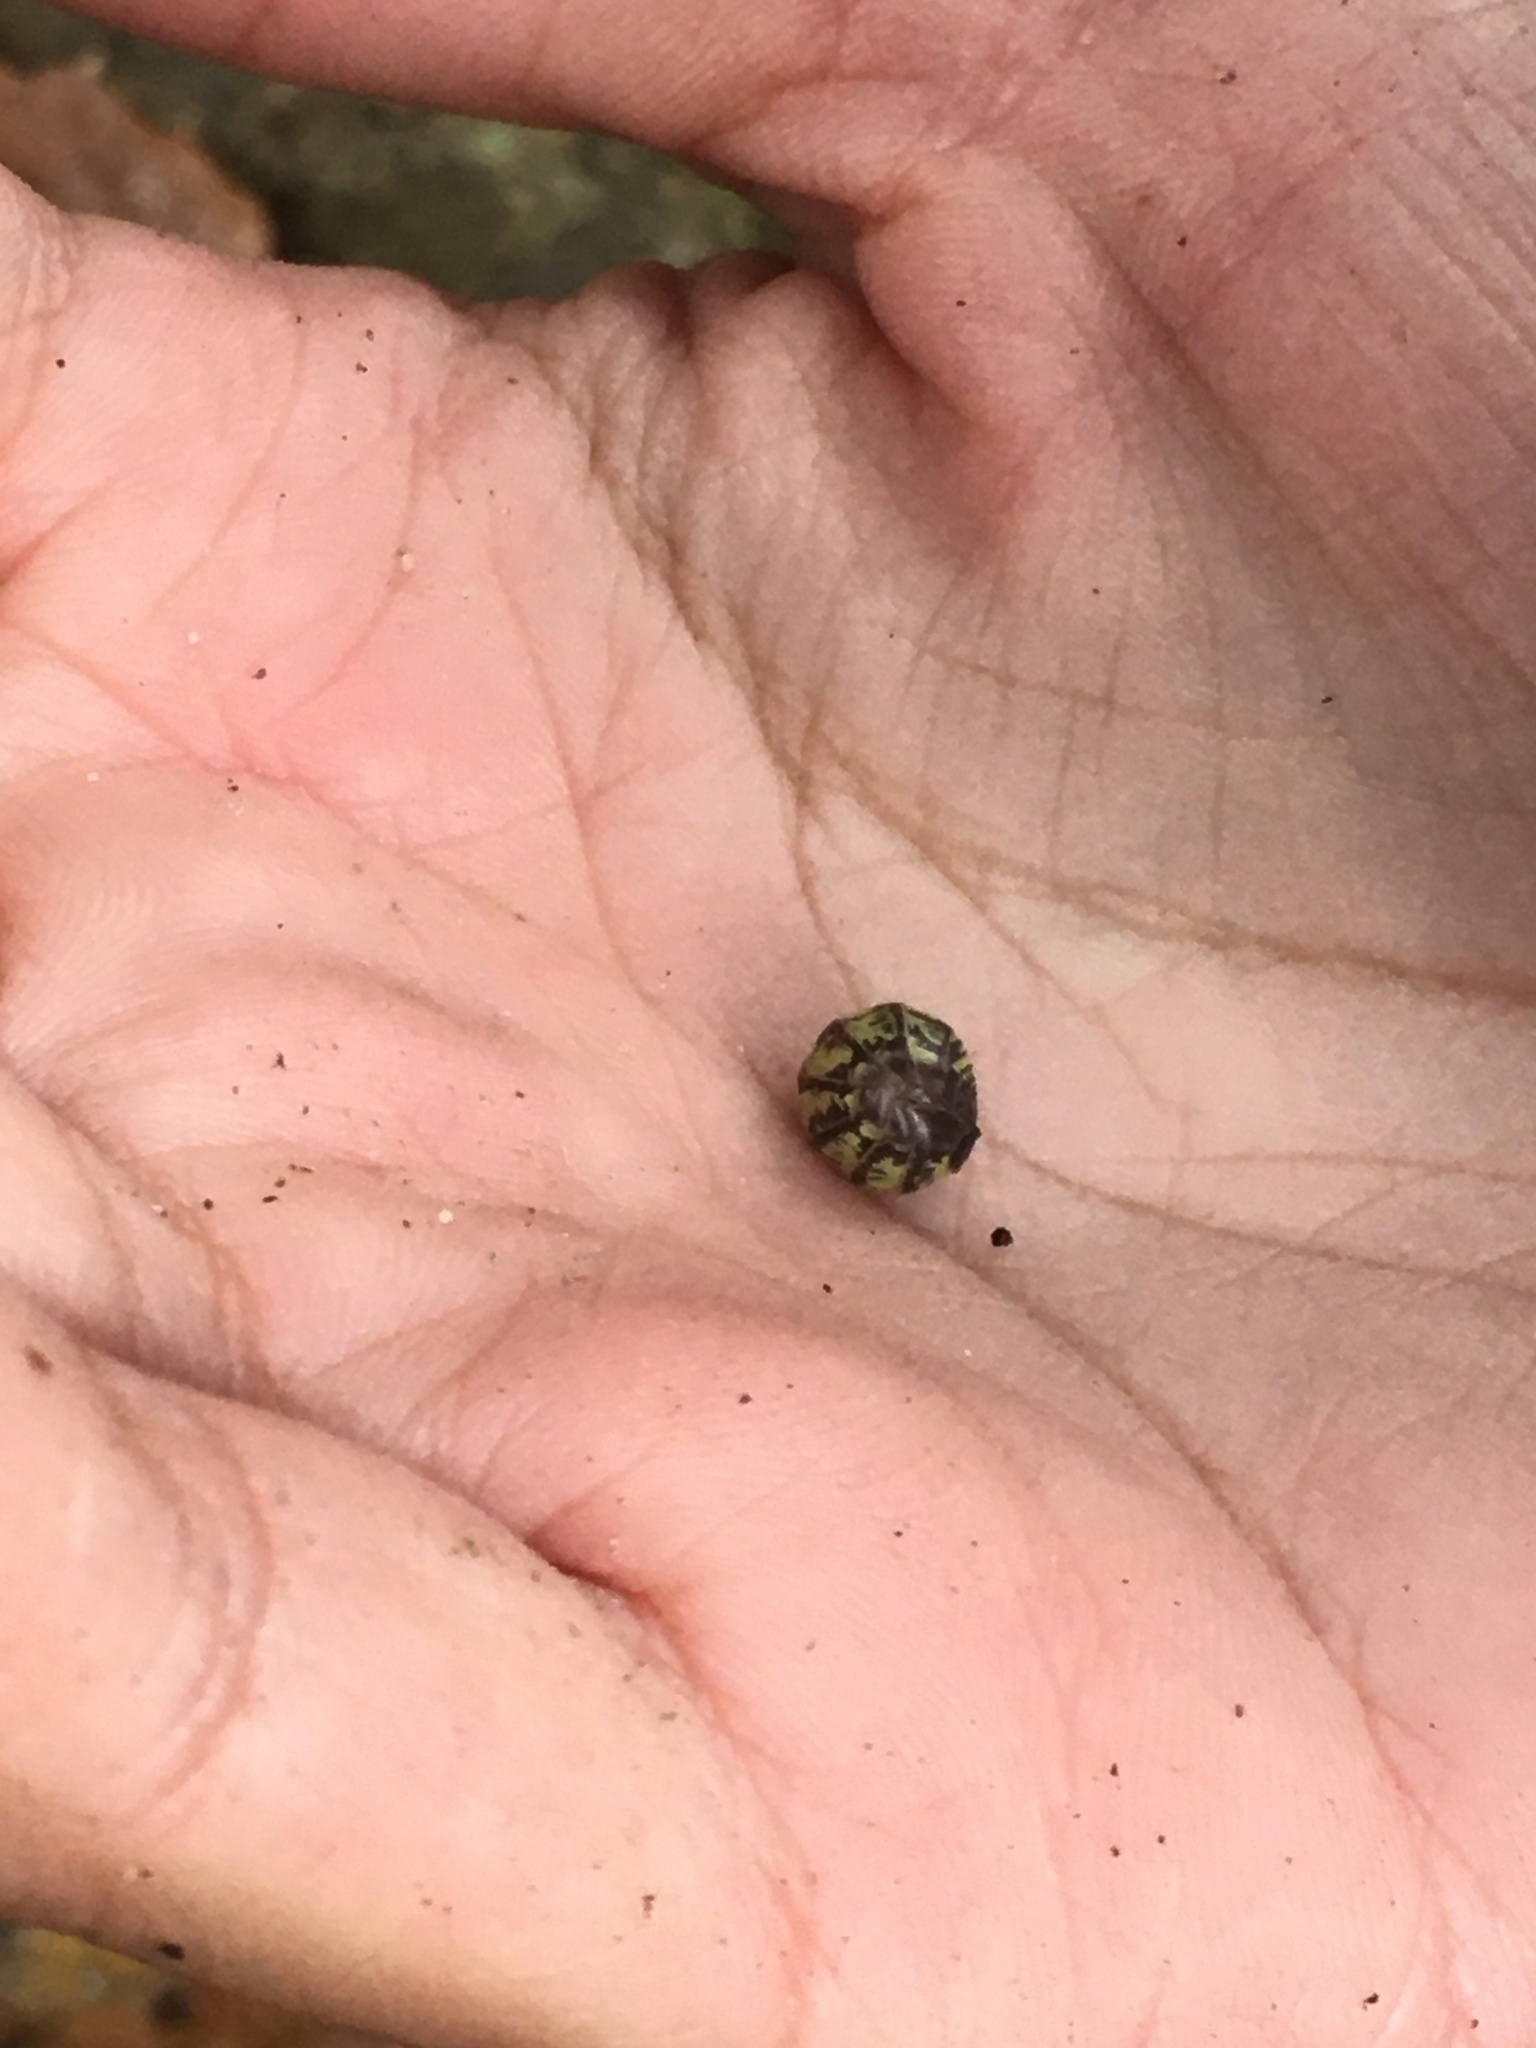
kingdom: Animalia
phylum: Arthropoda
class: Malacostraca
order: Isopoda
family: Armadillidiidae
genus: Armadillidium
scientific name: Armadillidium vulgare
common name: Common pill woodlouse
